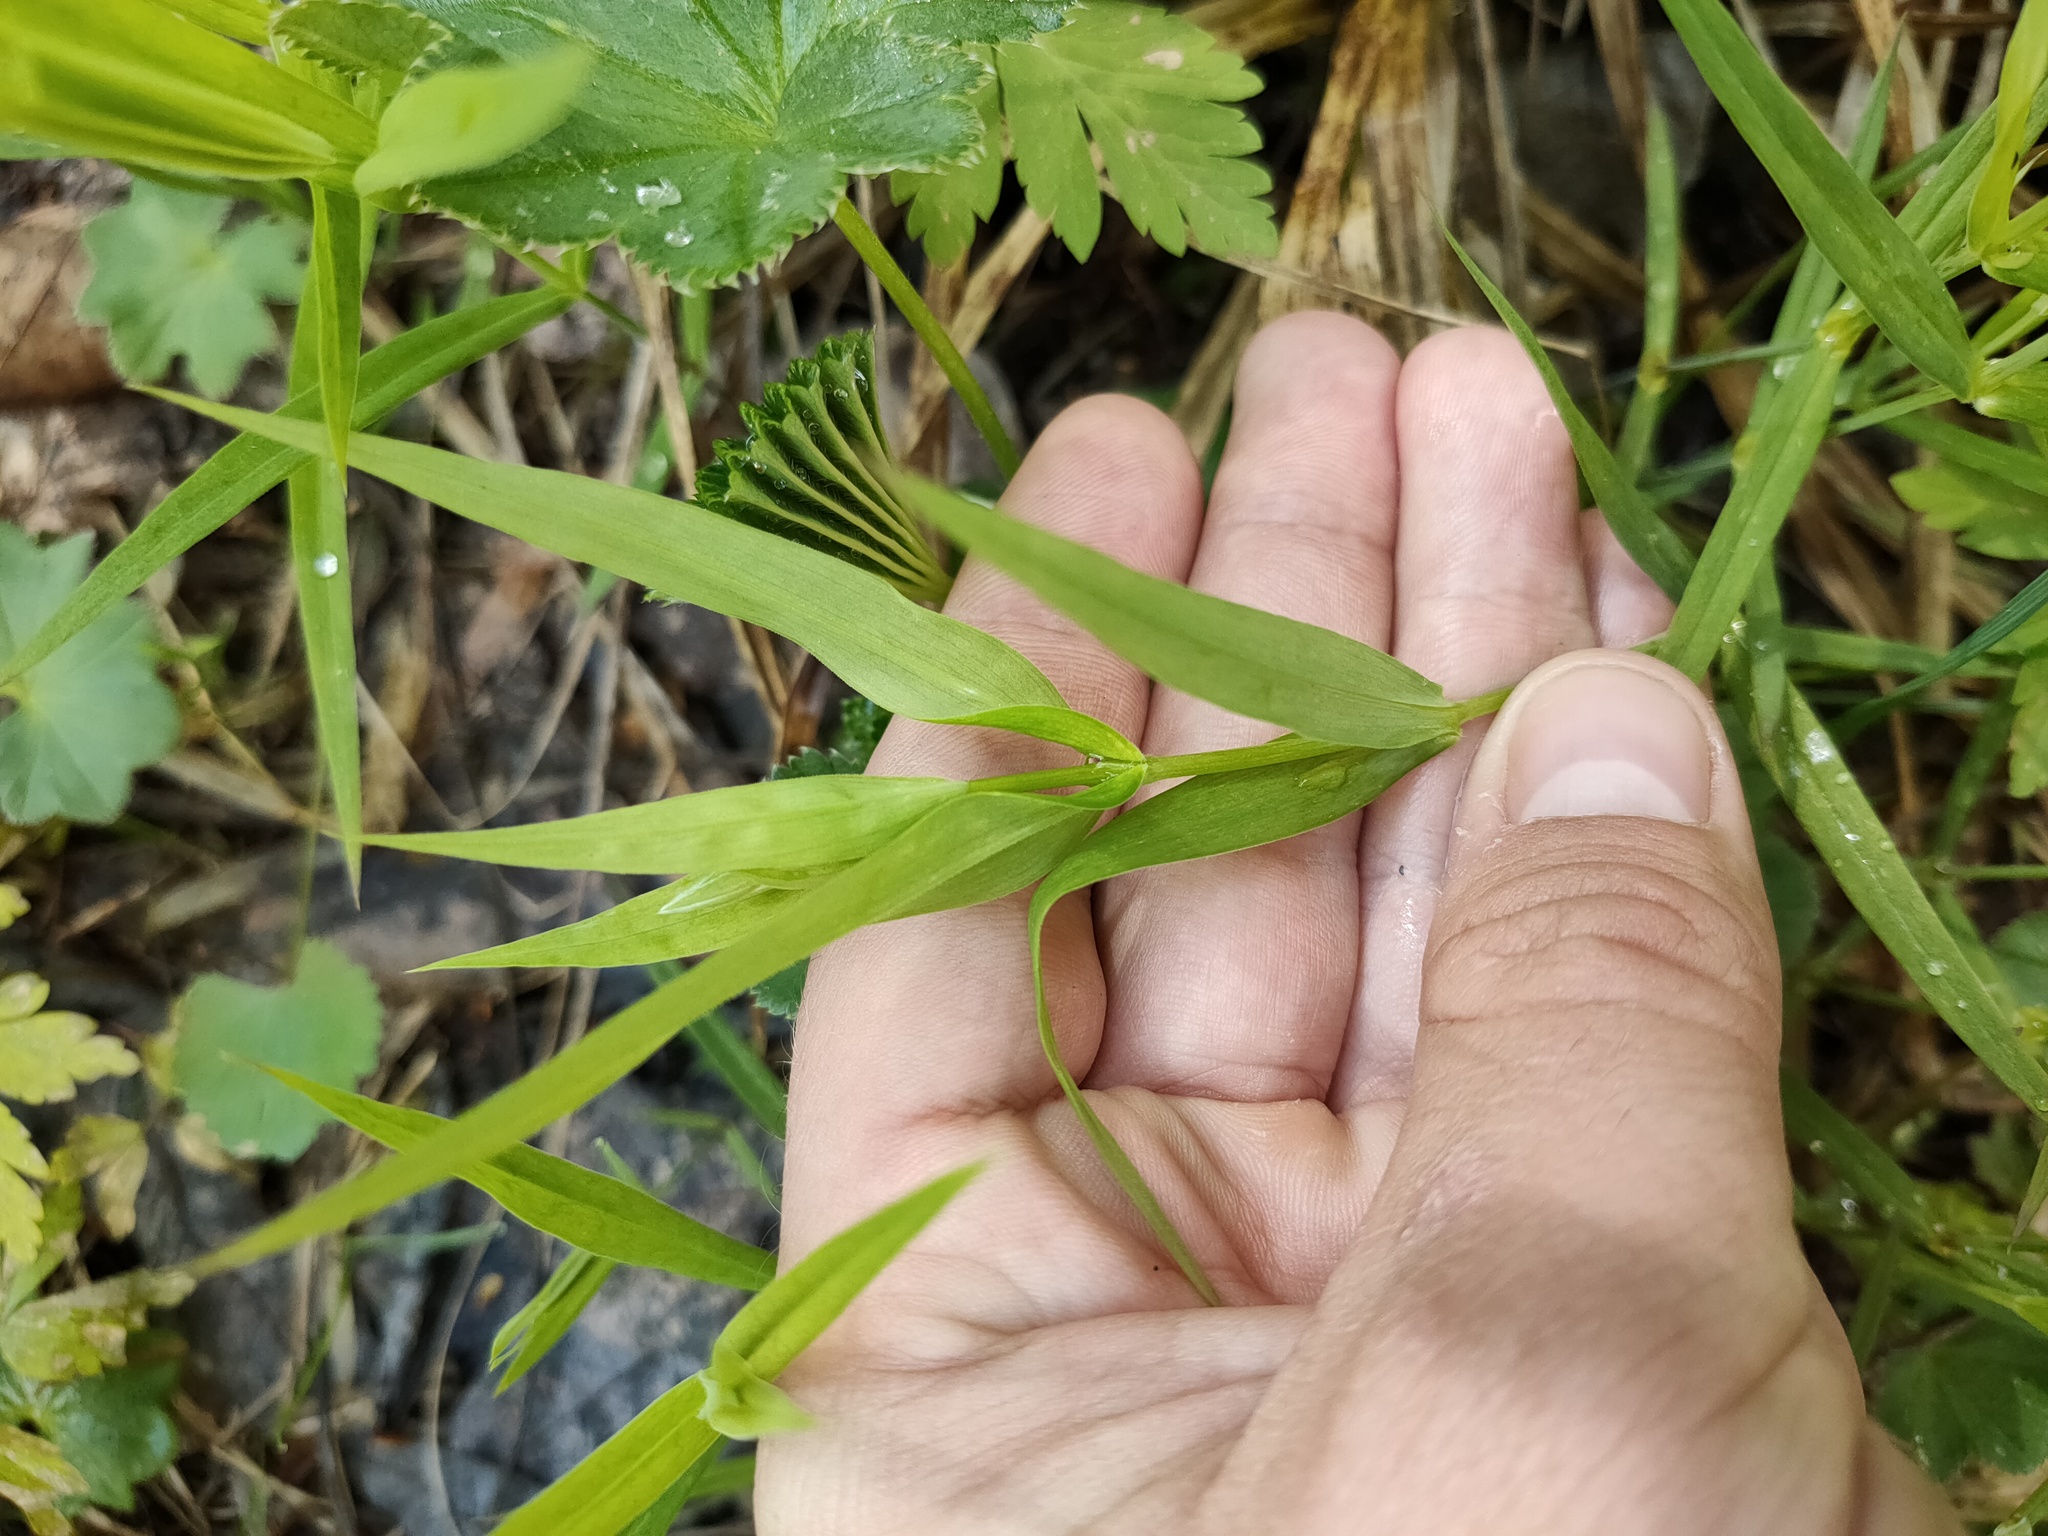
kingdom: Plantae
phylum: Tracheophyta
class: Magnoliopsida
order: Caryophyllales
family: Caryophyllaceae
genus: Rabelera
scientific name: Rabelera holostea
